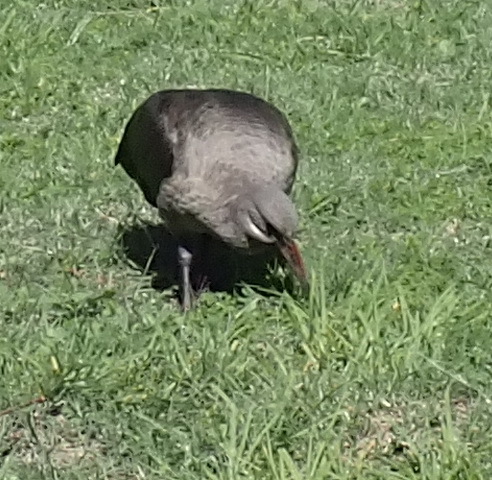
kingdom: Animalia
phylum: Chordata
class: Aves
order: Pelecaniformes
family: Threskiornithidae
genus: Bostrychia
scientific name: Bostrychia hagedash
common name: Hadada ibis
